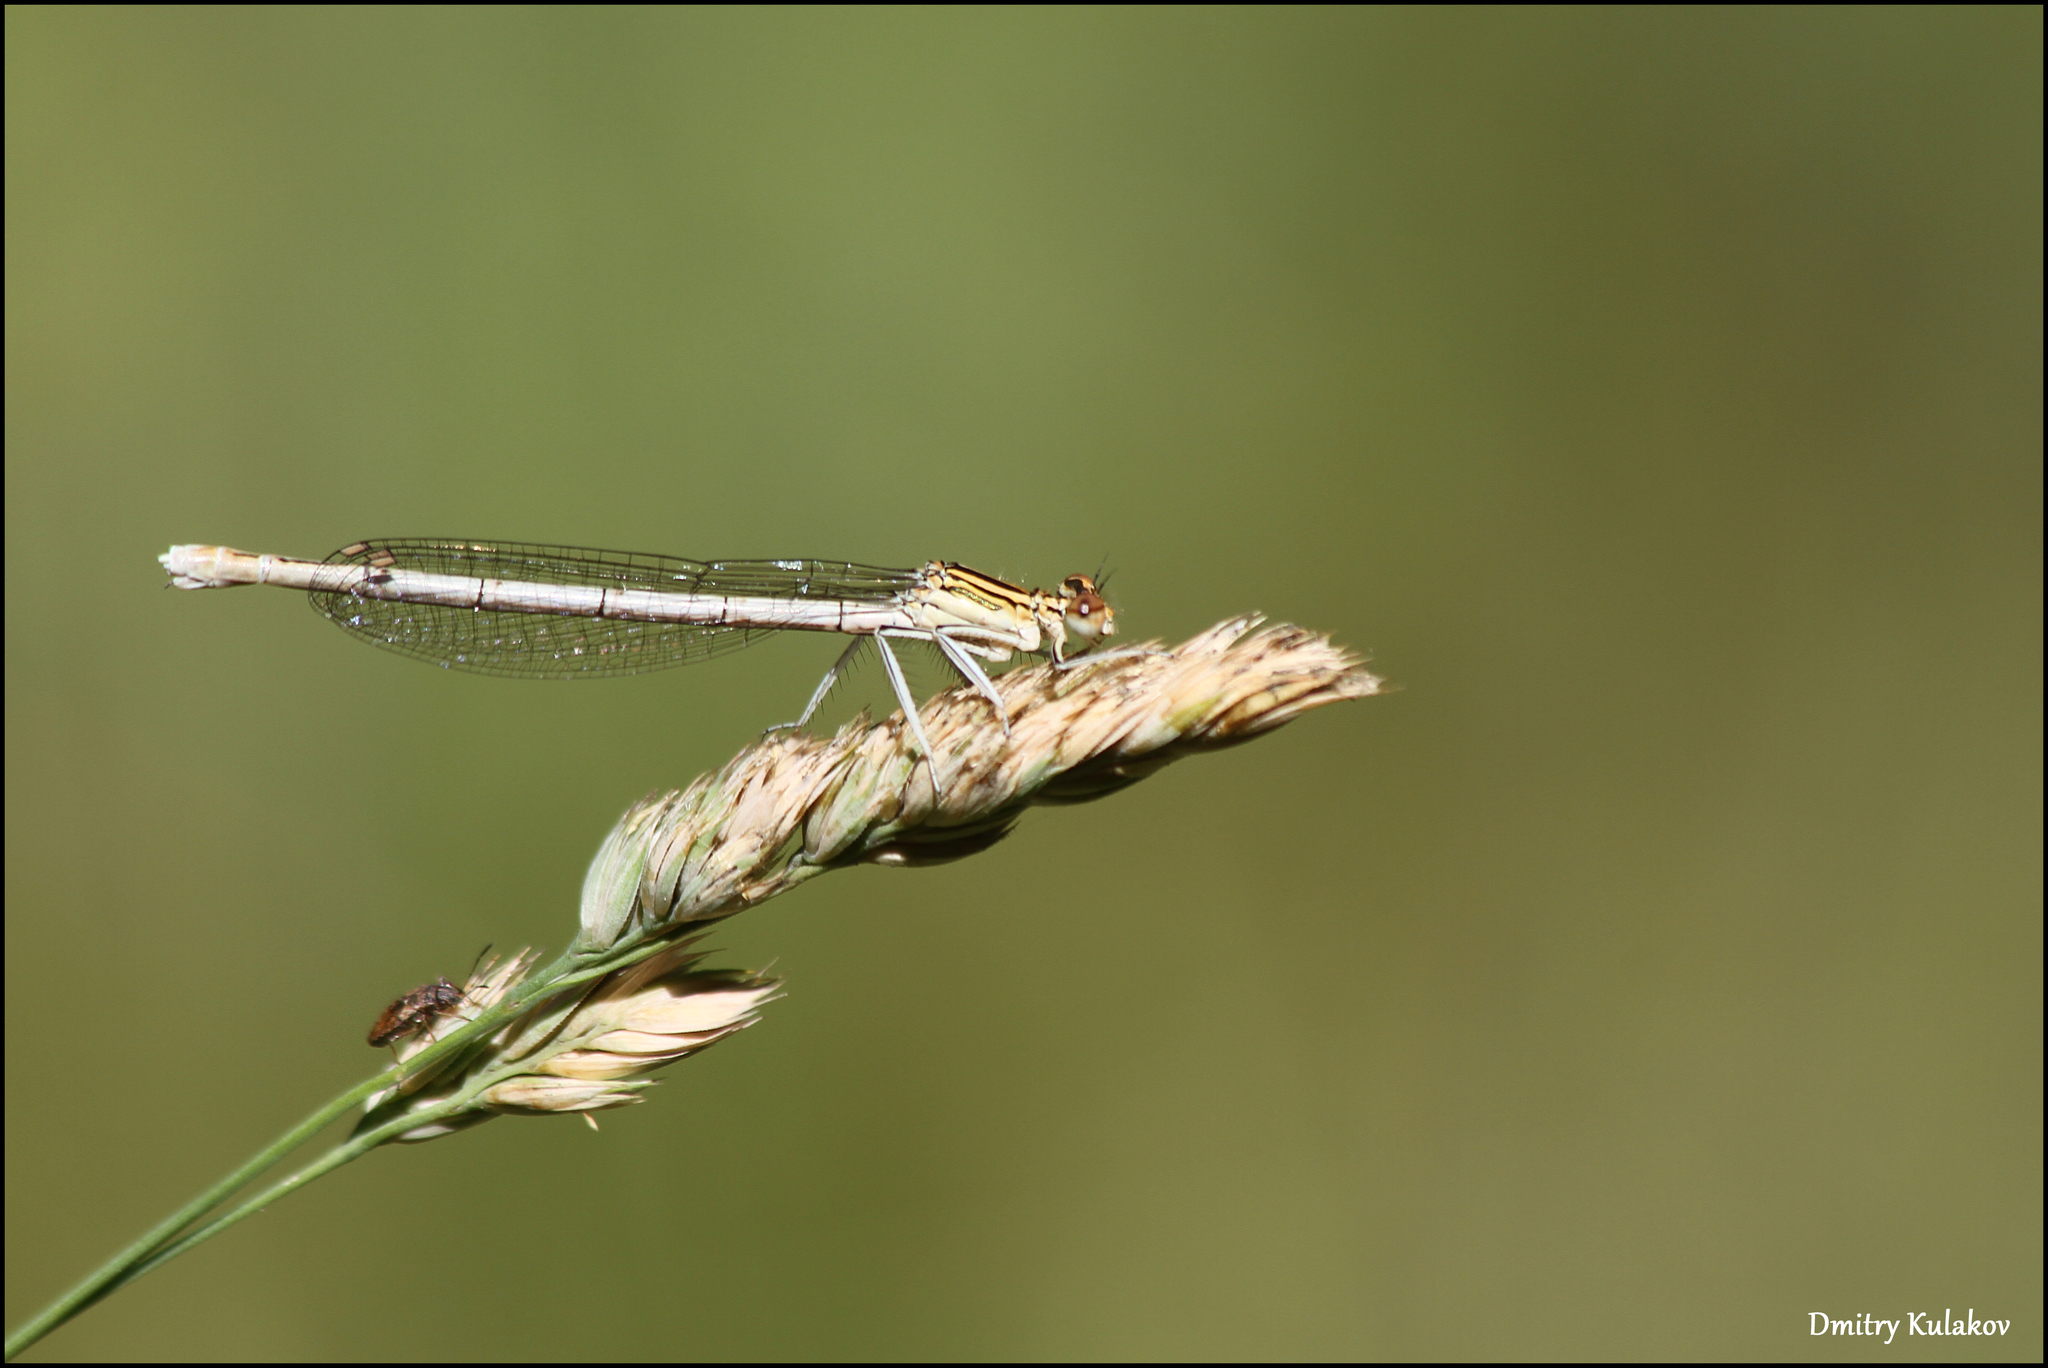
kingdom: Animalia
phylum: Arthropoda
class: Insecta
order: Odonata
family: Platycnemididae
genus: Platycnemis
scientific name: Platycnemis pennipes
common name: White-legged damselfly
